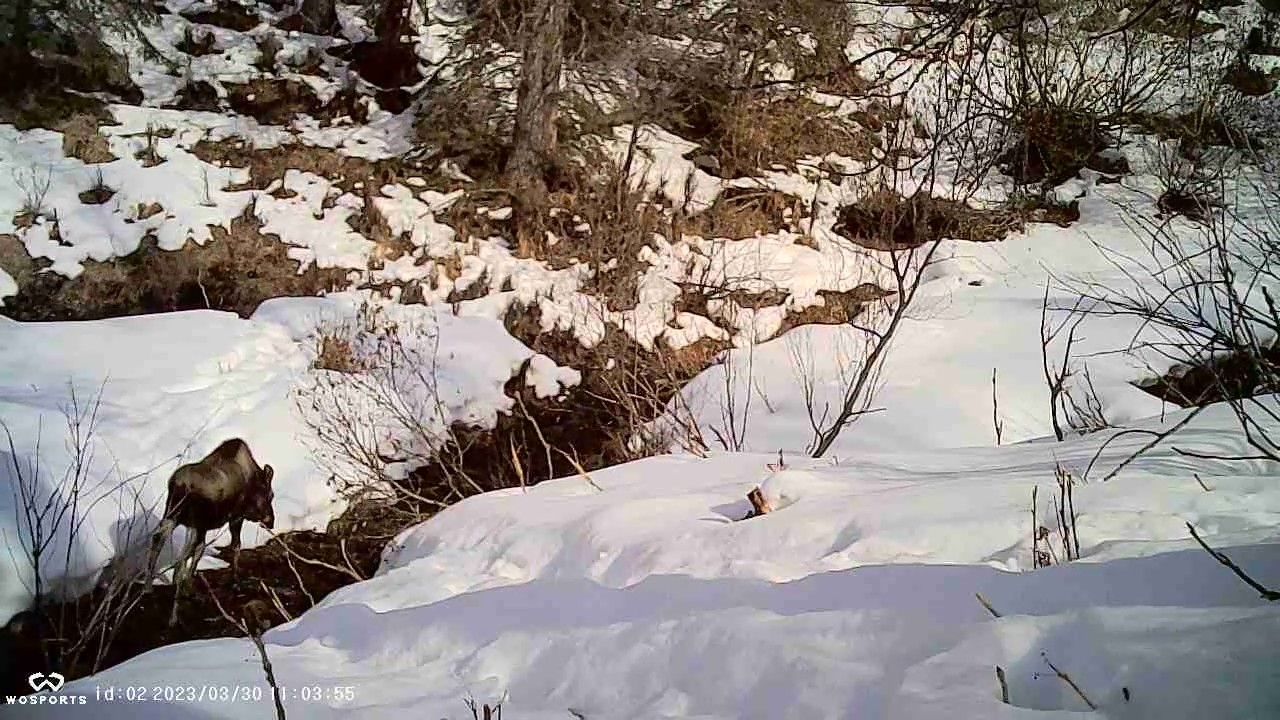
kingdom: Animalia
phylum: Chordata
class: Mammalia
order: Artiodactyla
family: Cervidae
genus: Alces
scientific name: Alces alces
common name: Moose
